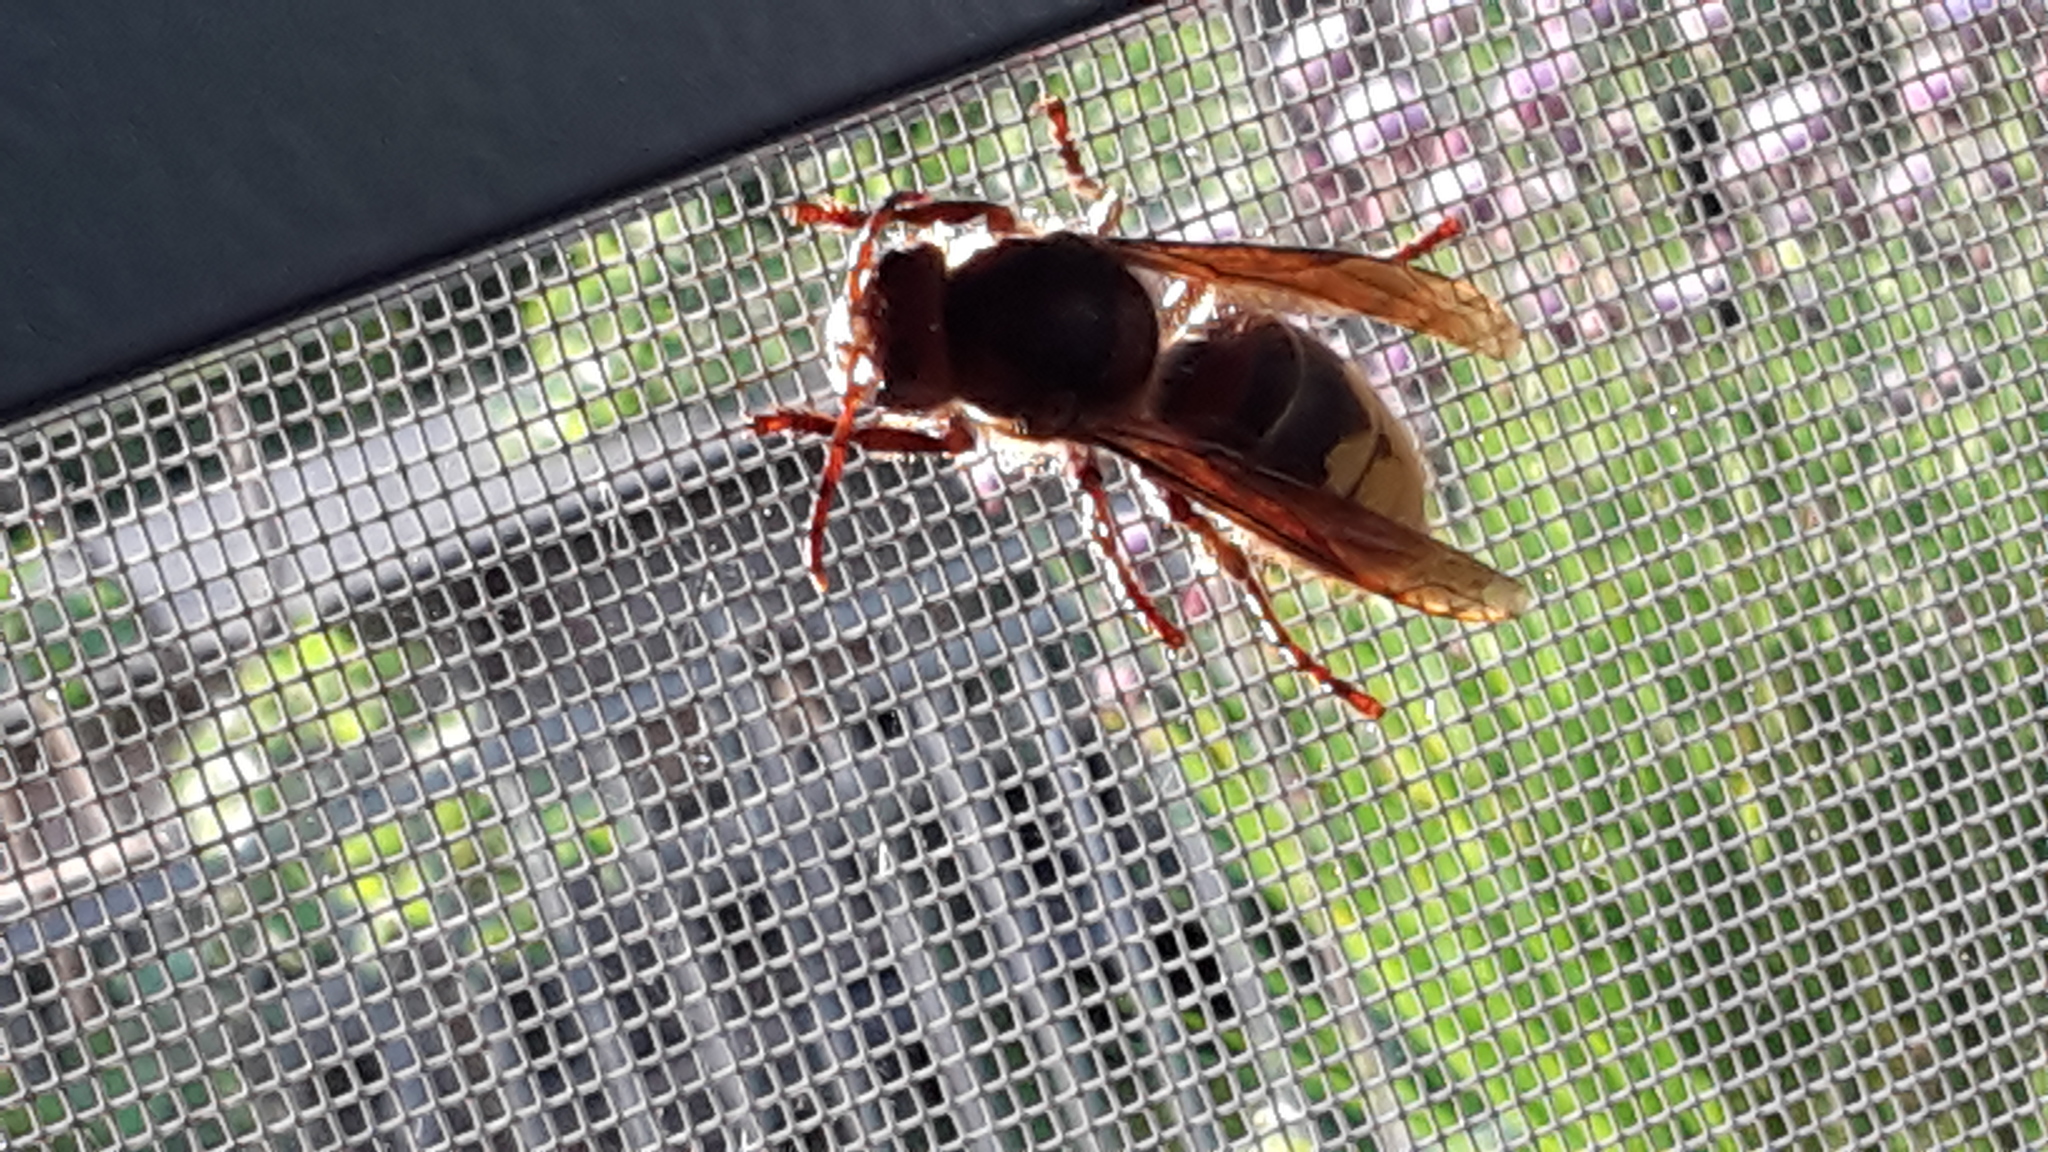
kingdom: Animalia
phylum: Arthropoda
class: Insecta
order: Hymenoptera
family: Vespidae
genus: Vespa
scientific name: Vespa crabro
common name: Hornet
